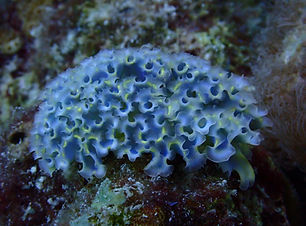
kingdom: Animalia
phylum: Mollusca
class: Gastropoda
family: Plakobranchidae
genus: Elysia
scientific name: Elysia crispata
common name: Lettuce slug
